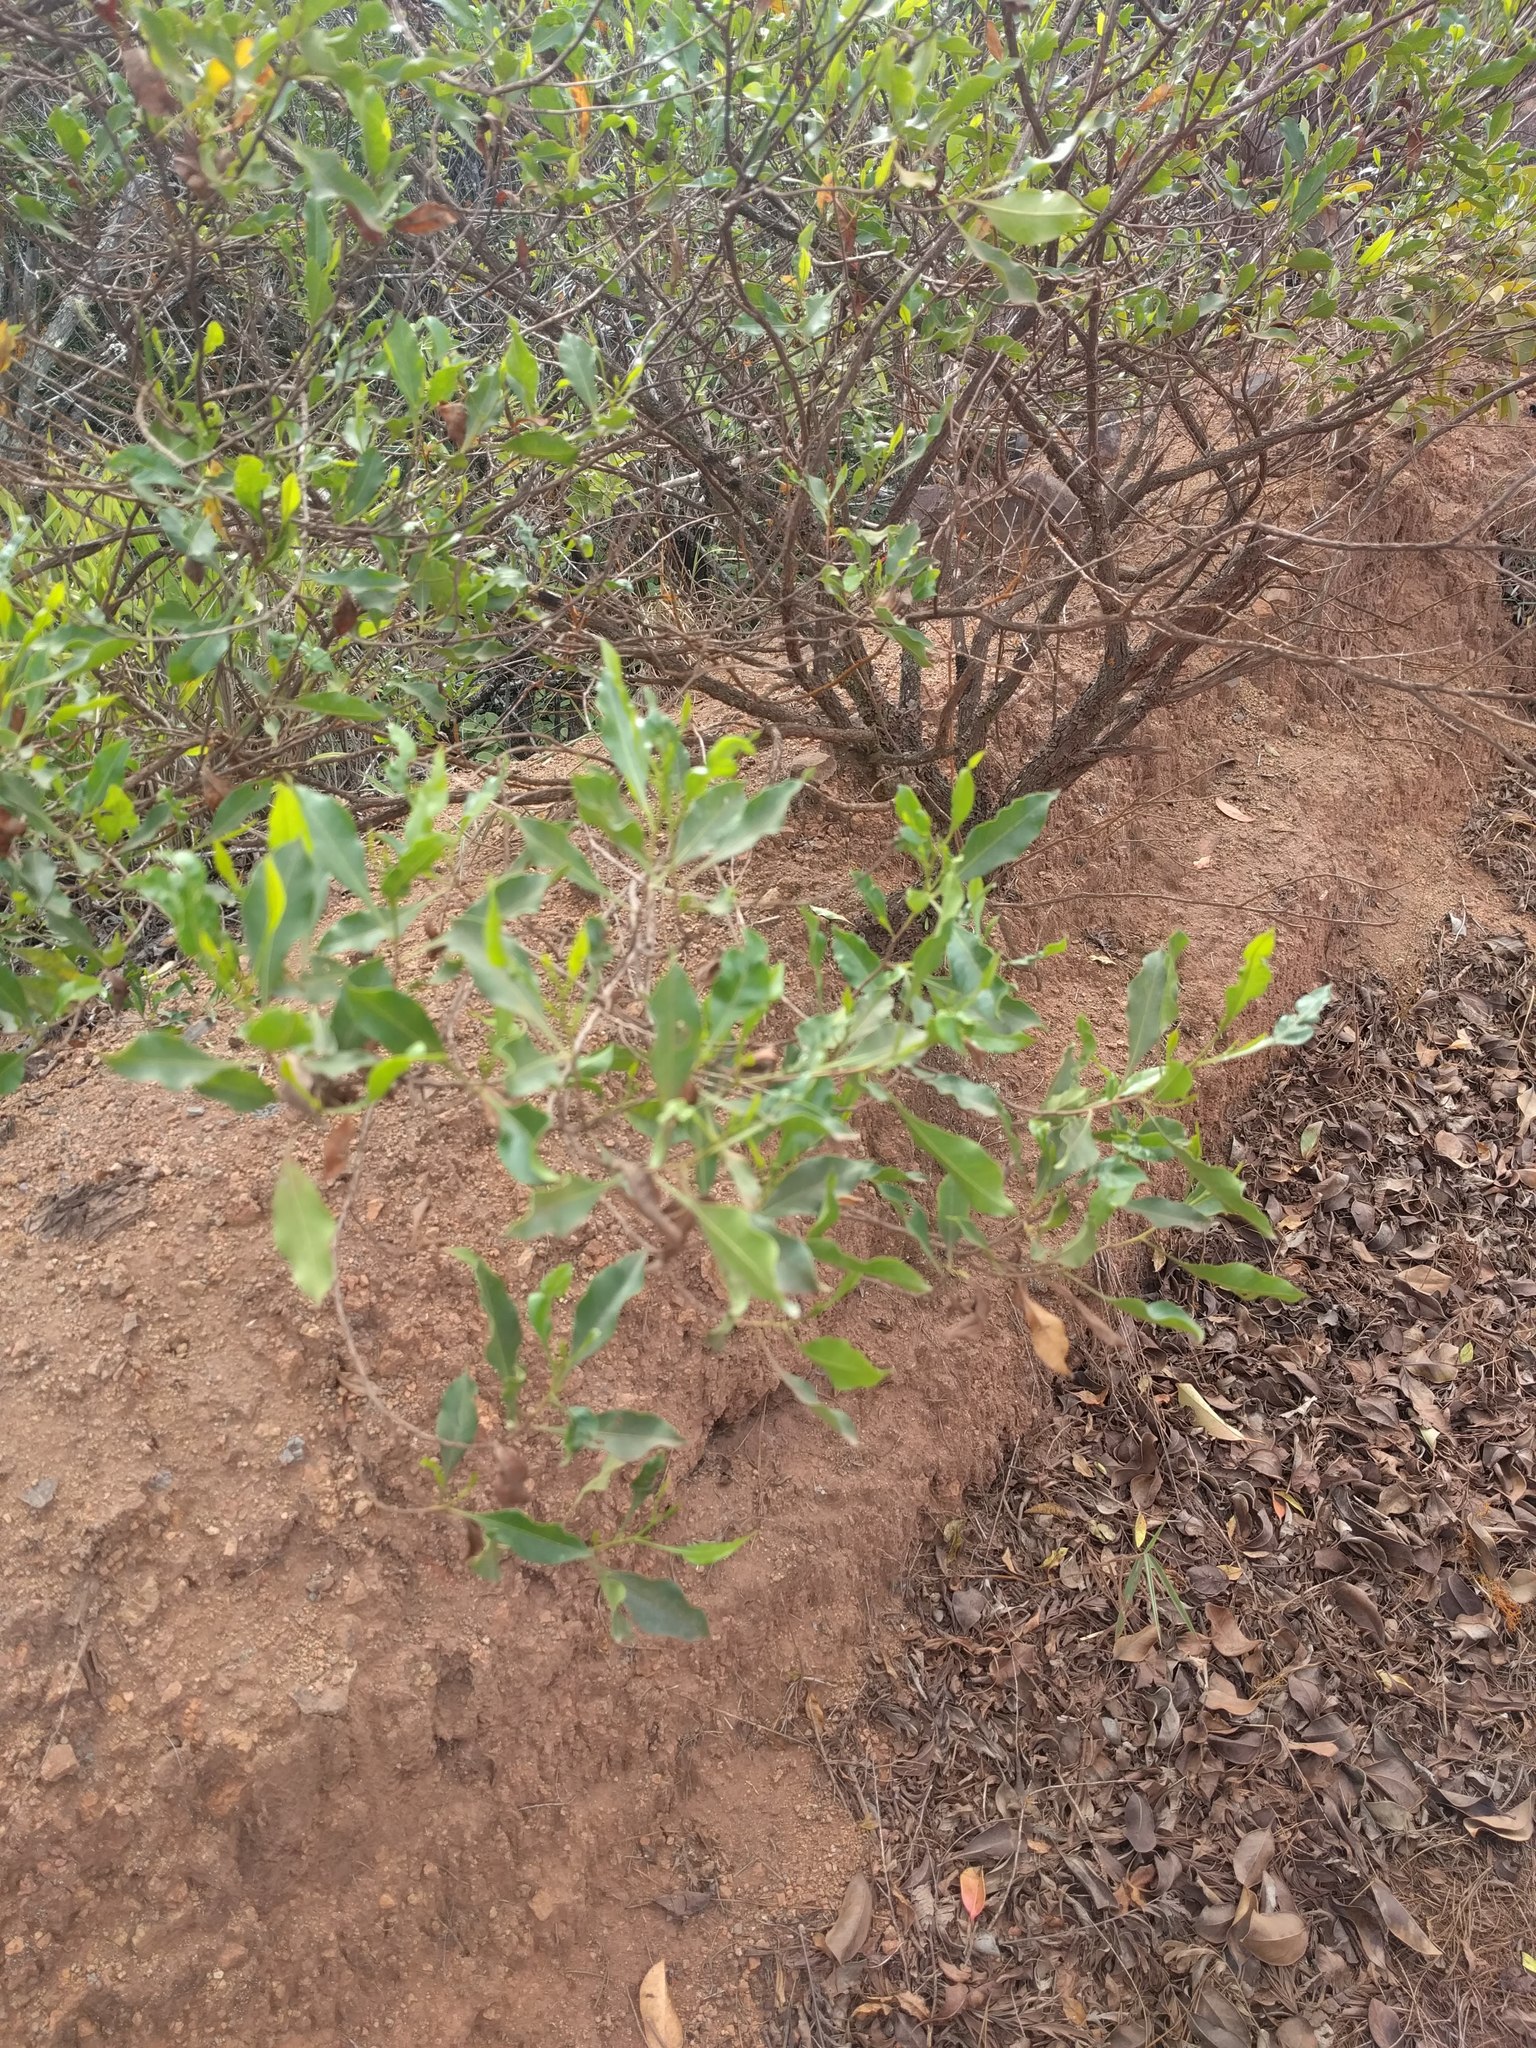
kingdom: Plantae
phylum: Tracheophyta
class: Magnoliopsida
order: Sapindales
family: Sapindaceae
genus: Dodonaea
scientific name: Dodonaea viscosa
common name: Hopbush
